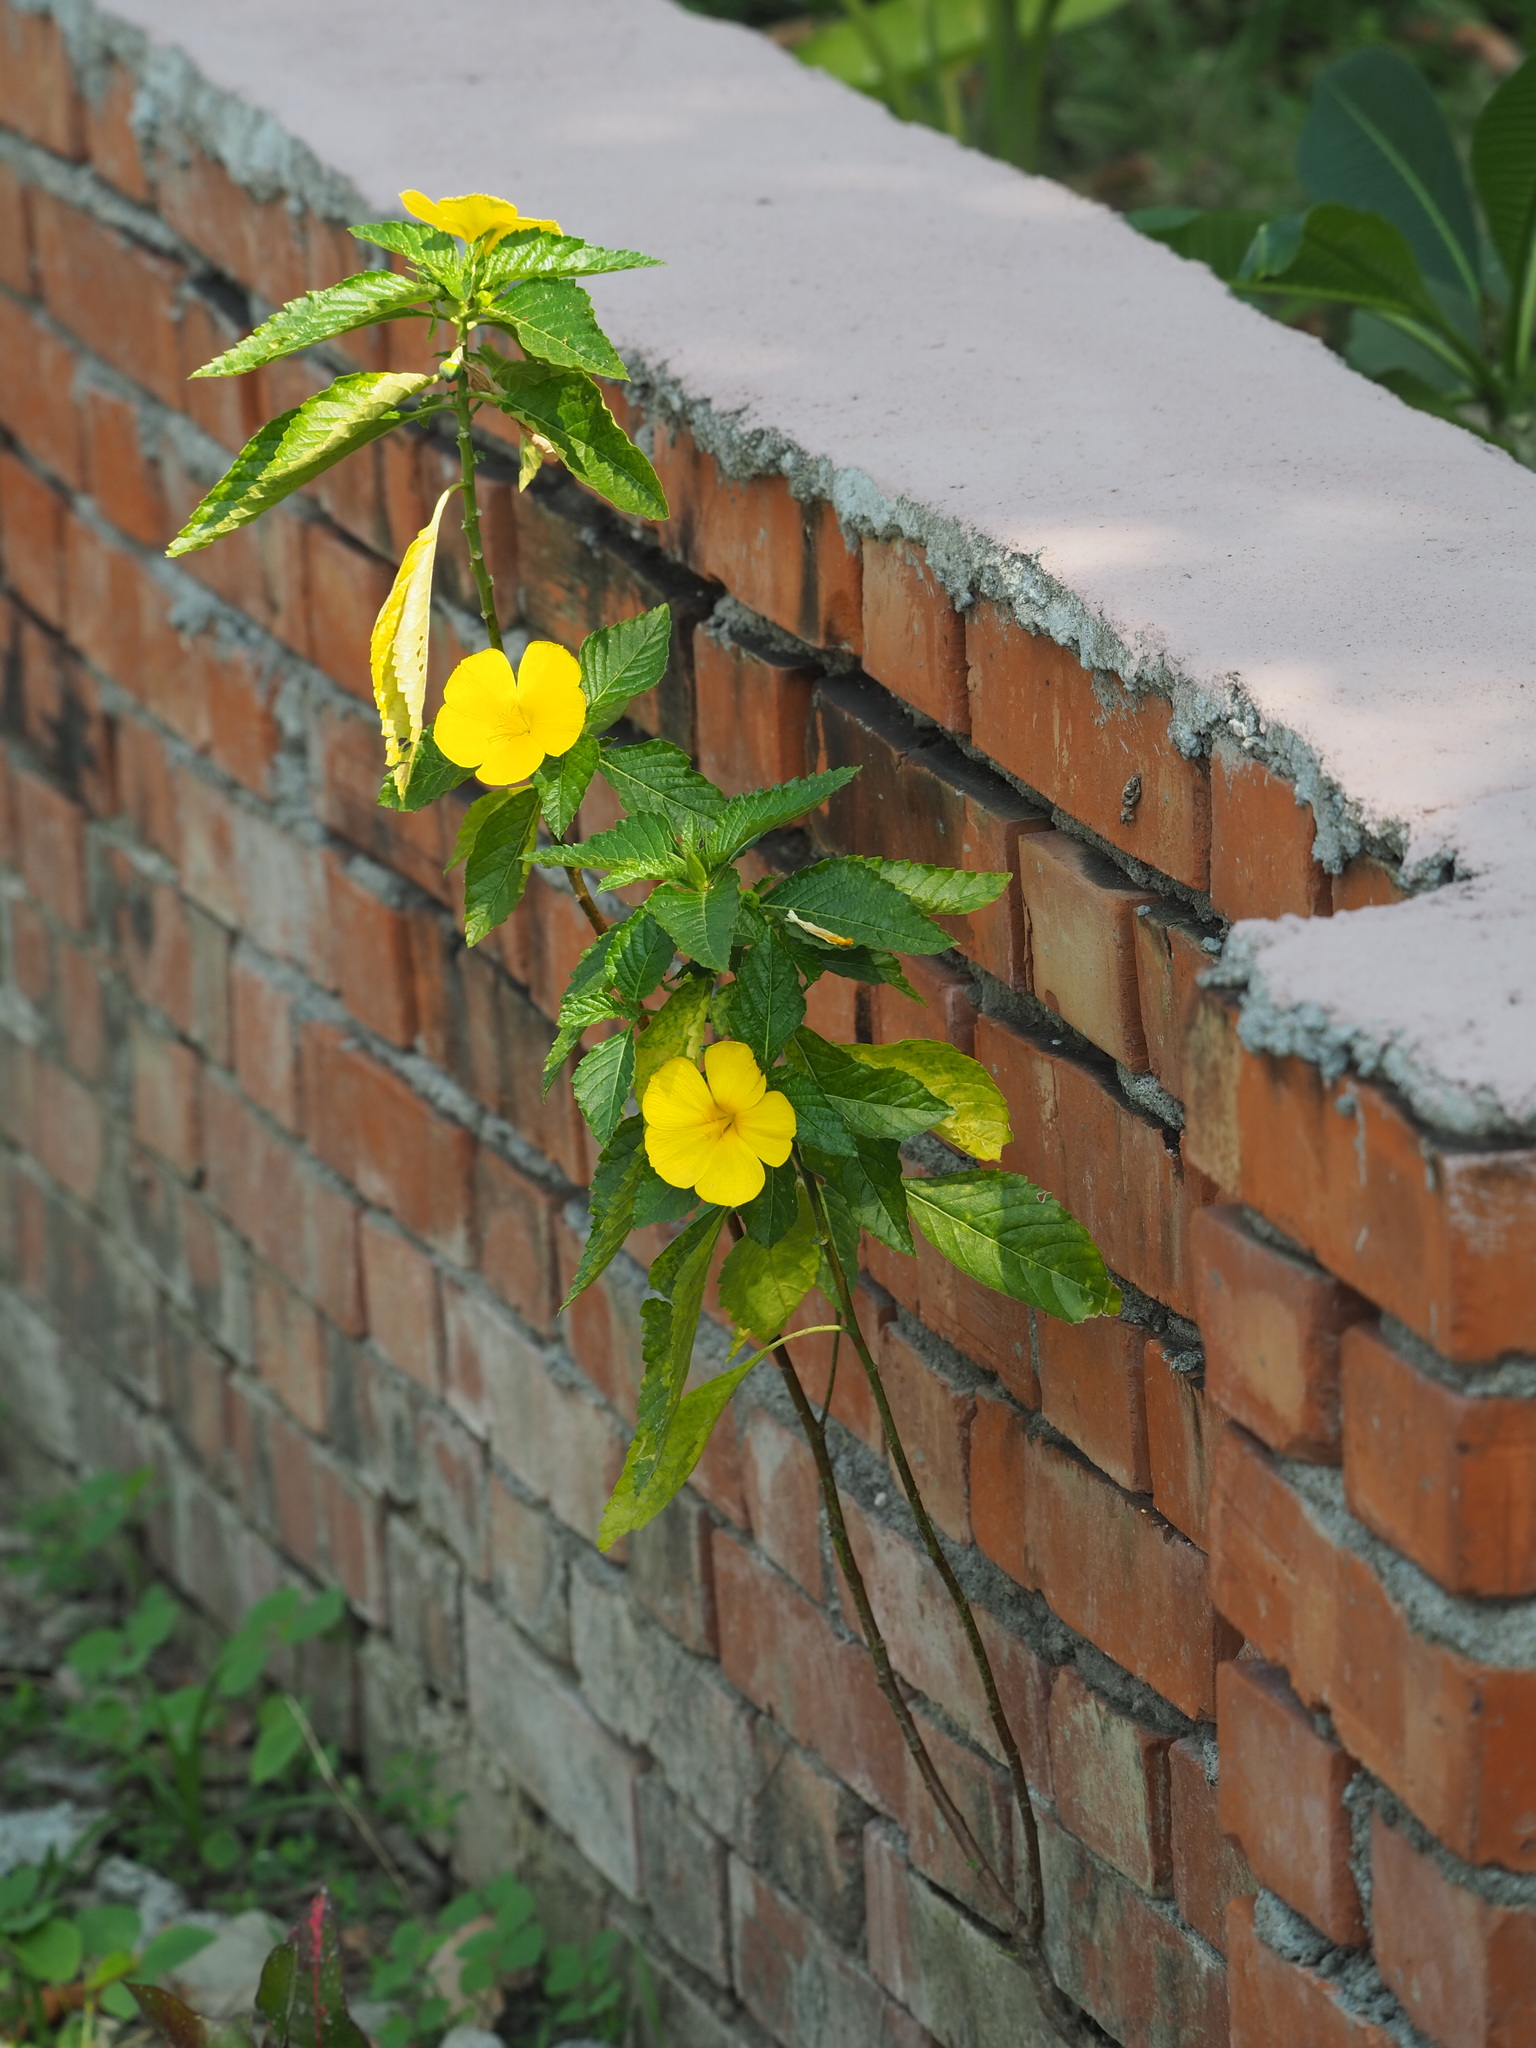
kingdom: Plantae
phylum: Tracheophyta
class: Magnoliopsida
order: Malpighiales
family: Turneraceae
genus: Turnera
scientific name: Turnera ulmifolia
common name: Ramgoat dashalong
